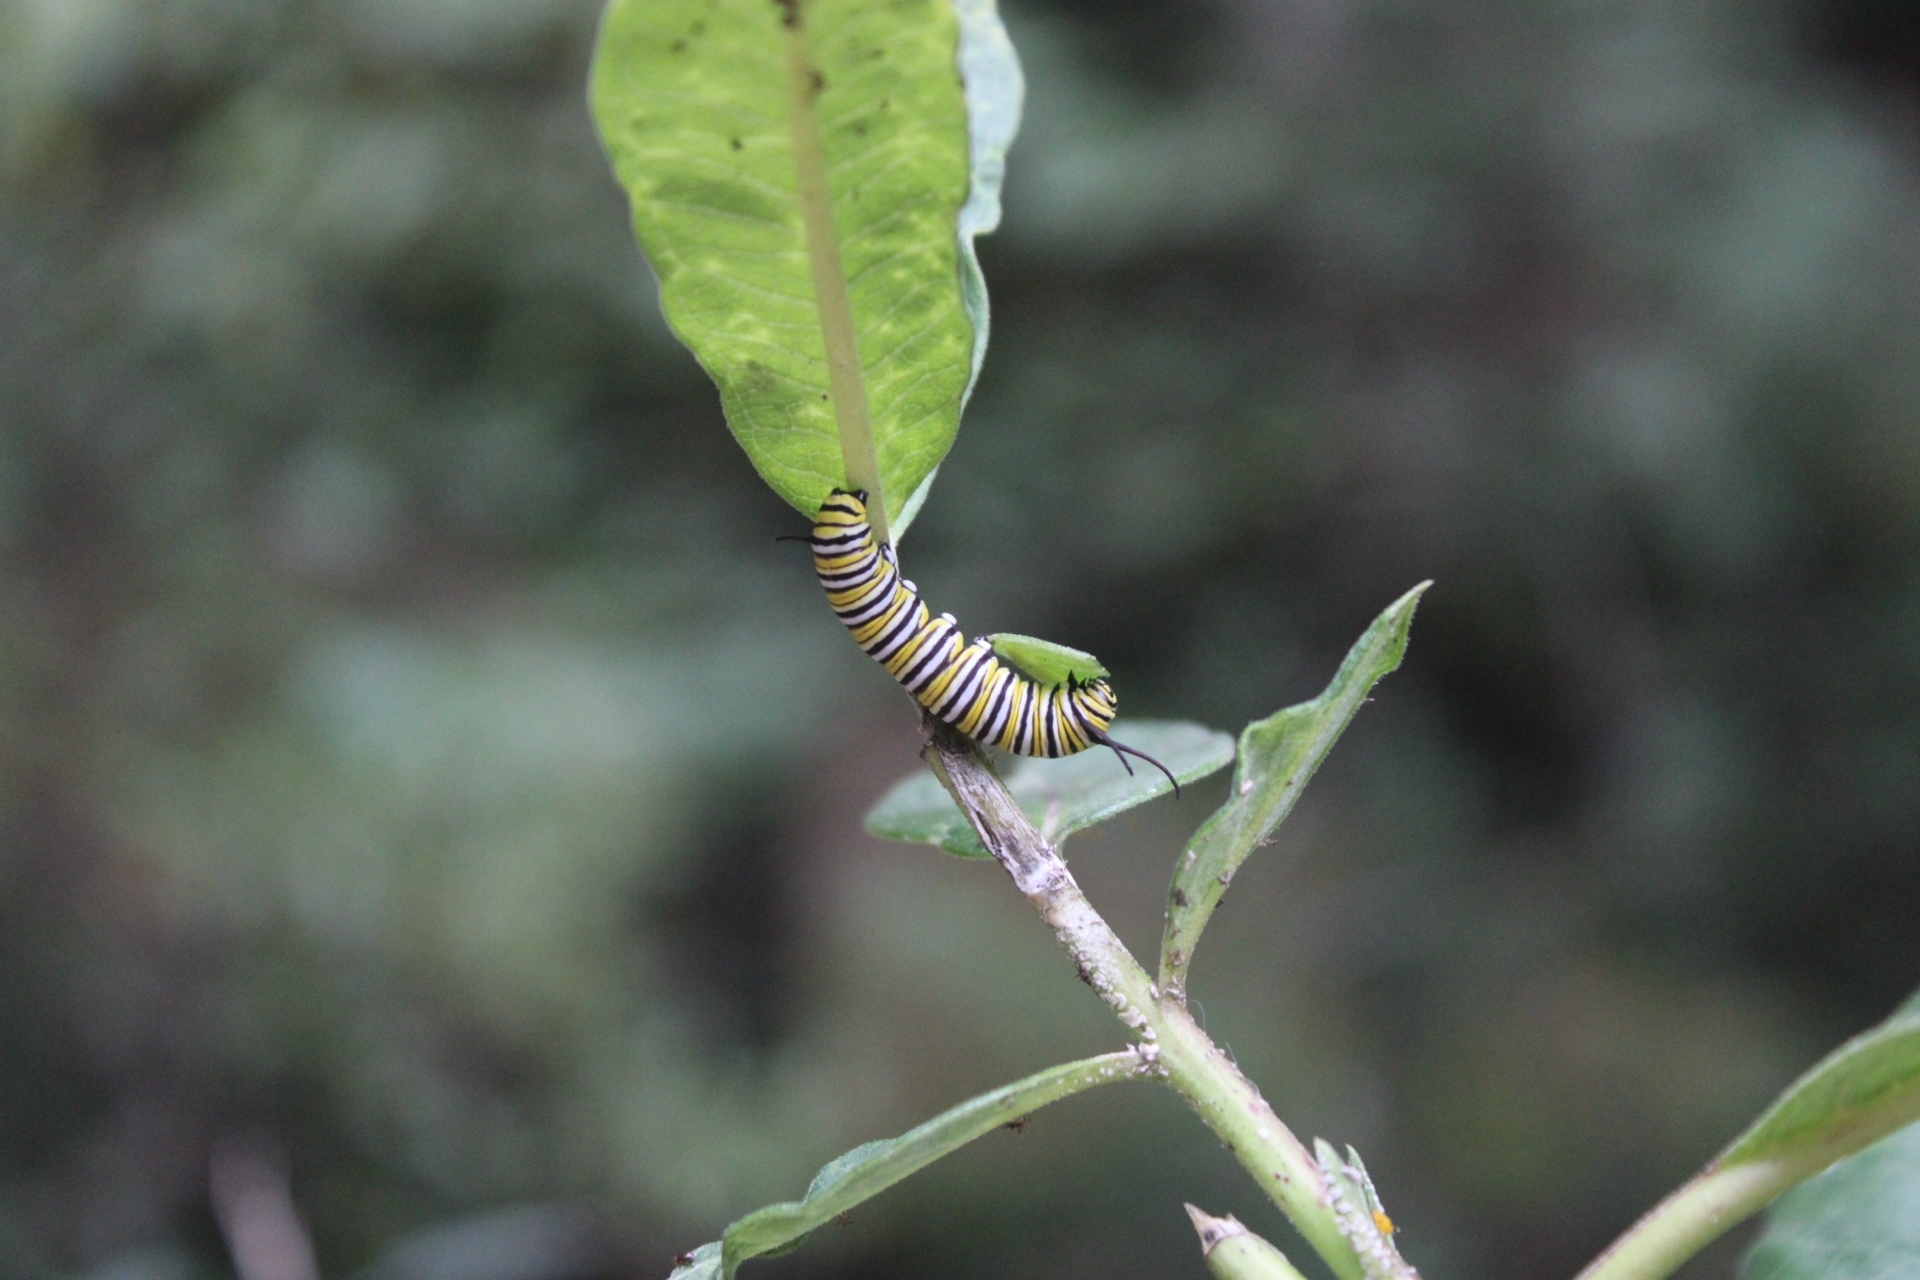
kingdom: Animalia
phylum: Arthropoda
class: Insecta
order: Lepidoptera
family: Nymphalidae
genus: Danaus
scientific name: Danaus plexippus
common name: Monarch
